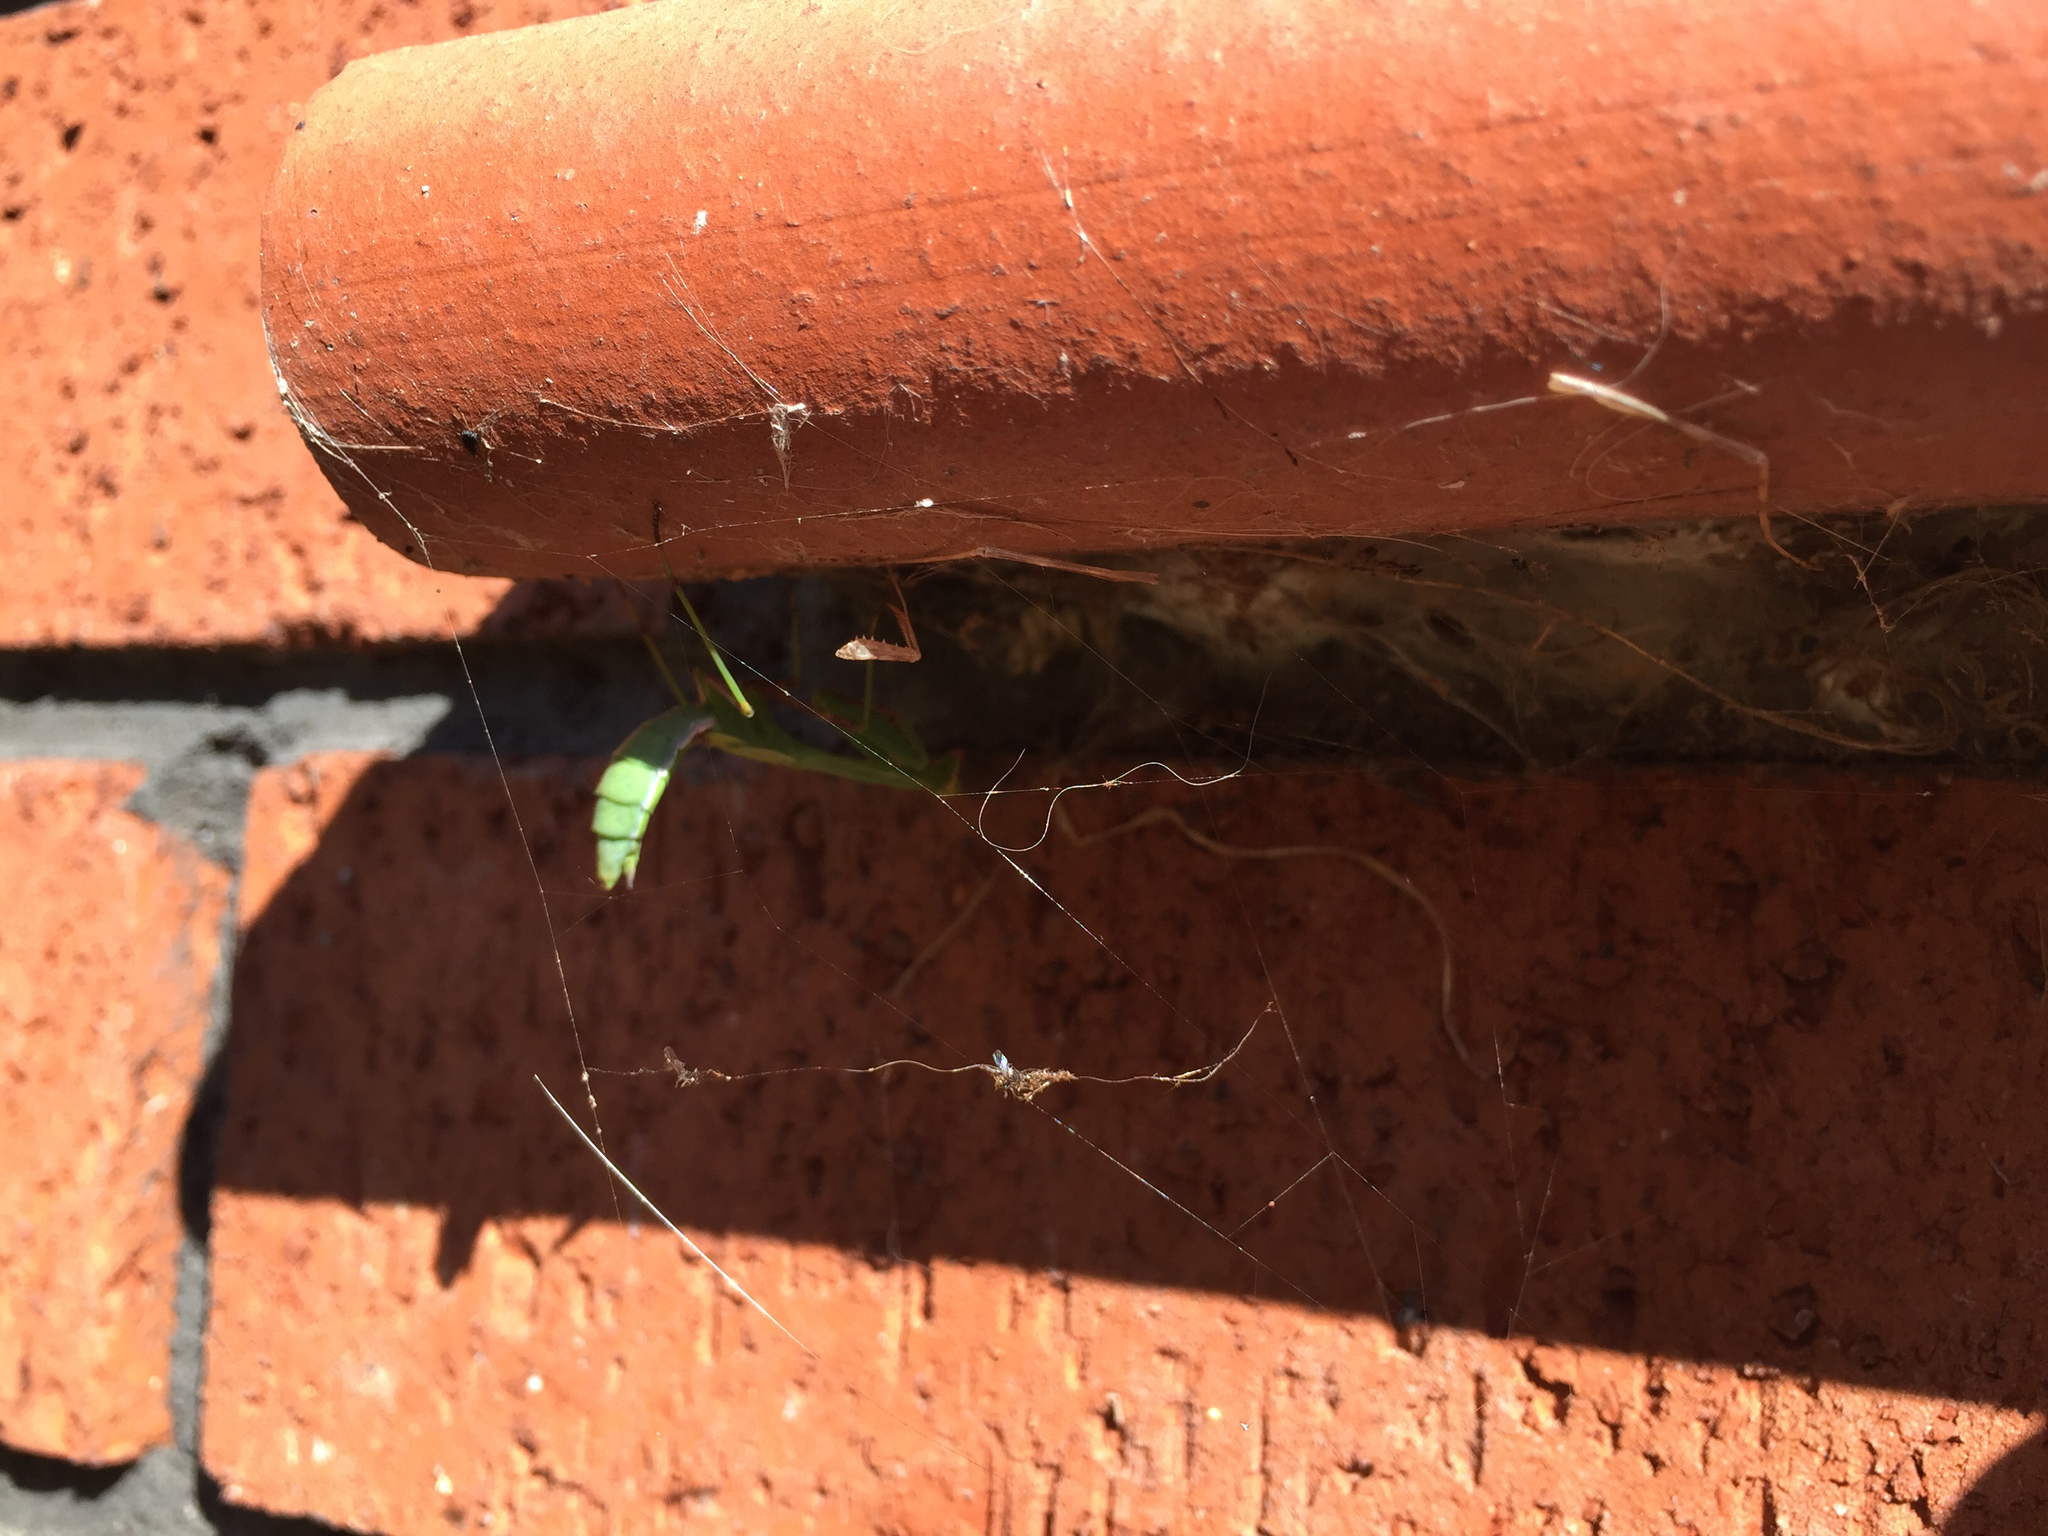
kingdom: Animalia
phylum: Arthropoda
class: Insecta
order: Mantodea
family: Miomantidae
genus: Miomantis
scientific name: Miomantis caffra
